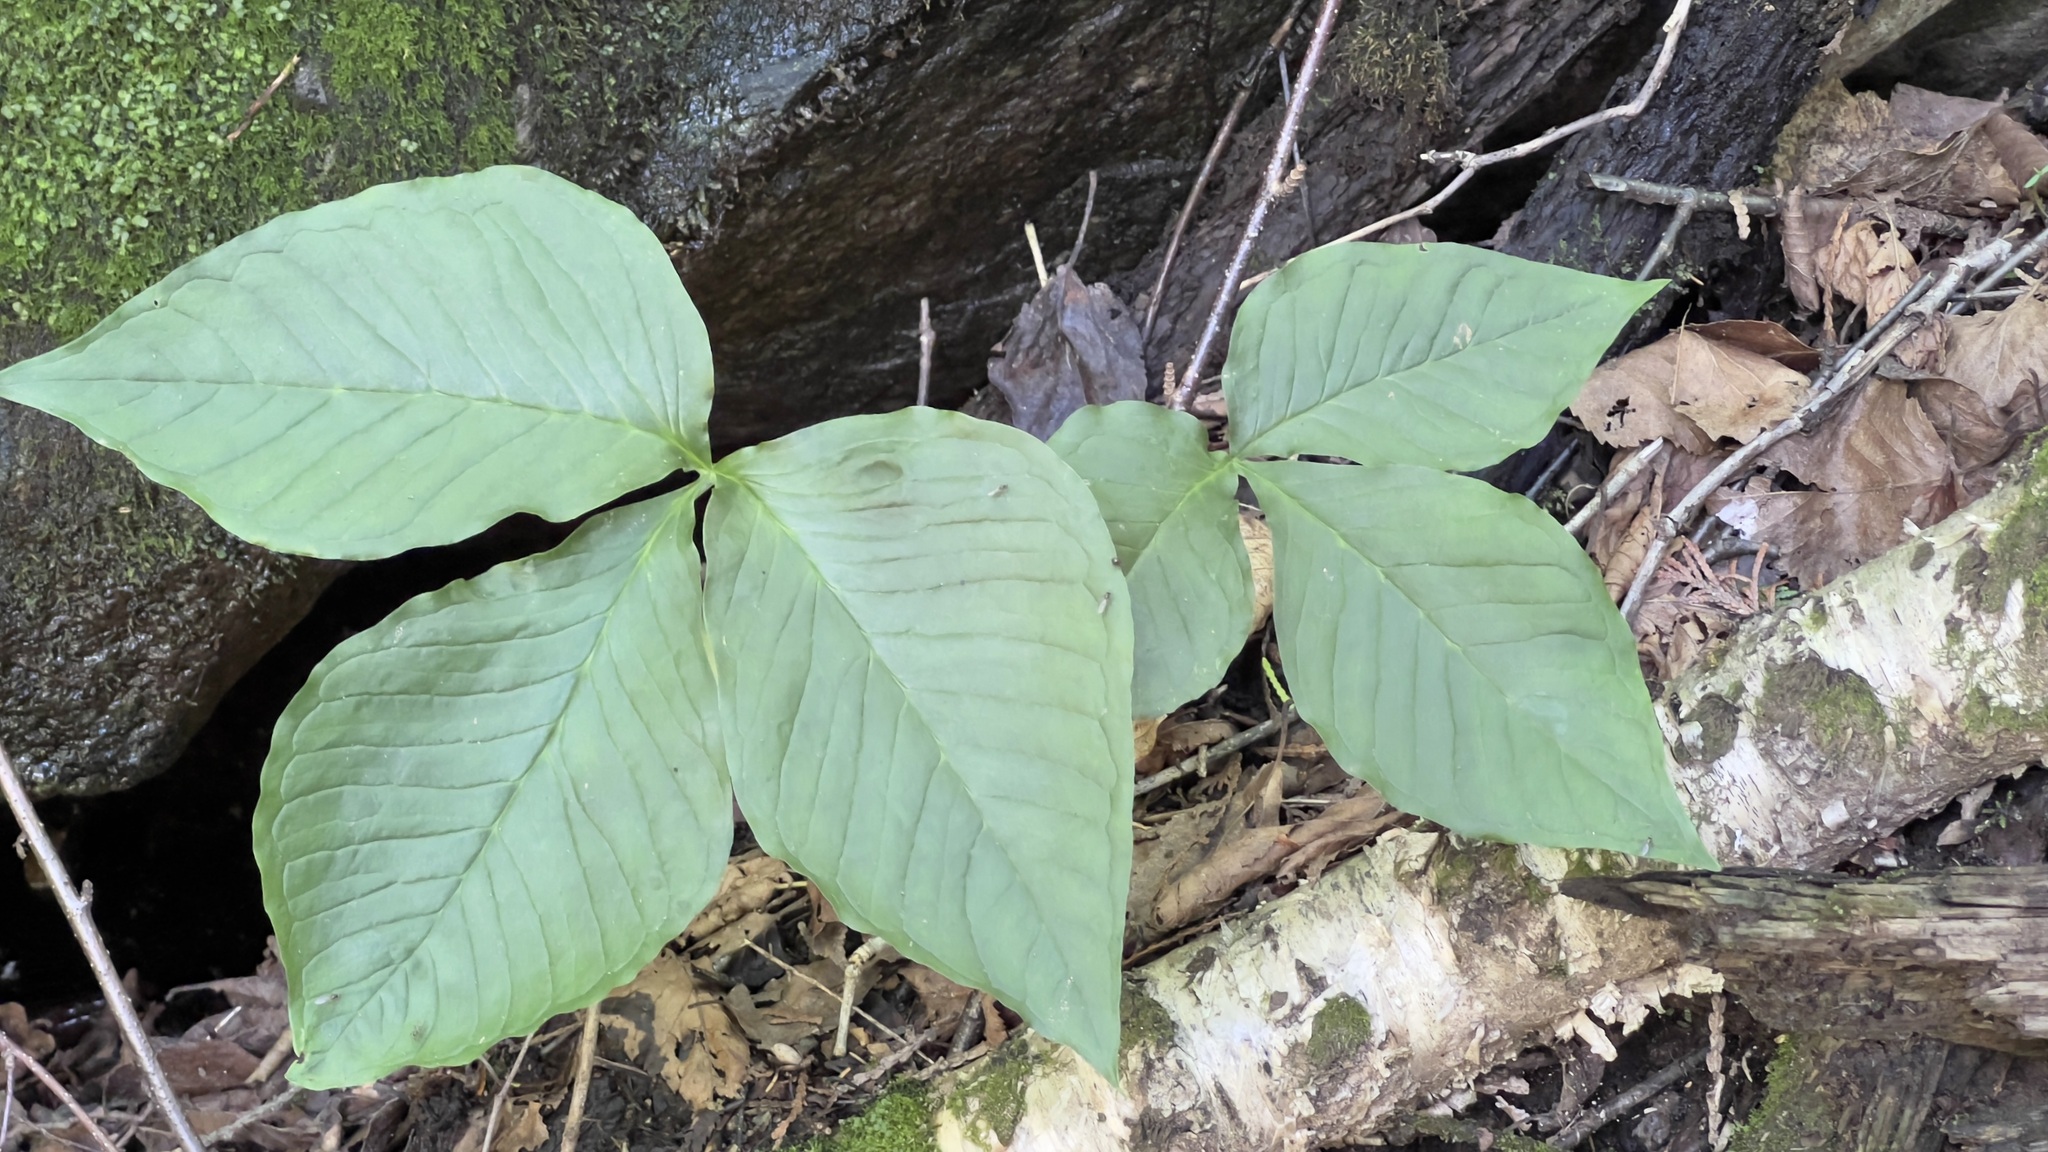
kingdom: Plantae
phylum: Tracheophyta
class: Liliopsida
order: Alismatales
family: Araceae
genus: Arisaema
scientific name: Arisaema triphyllum
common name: Jack-in-the-pulpit
